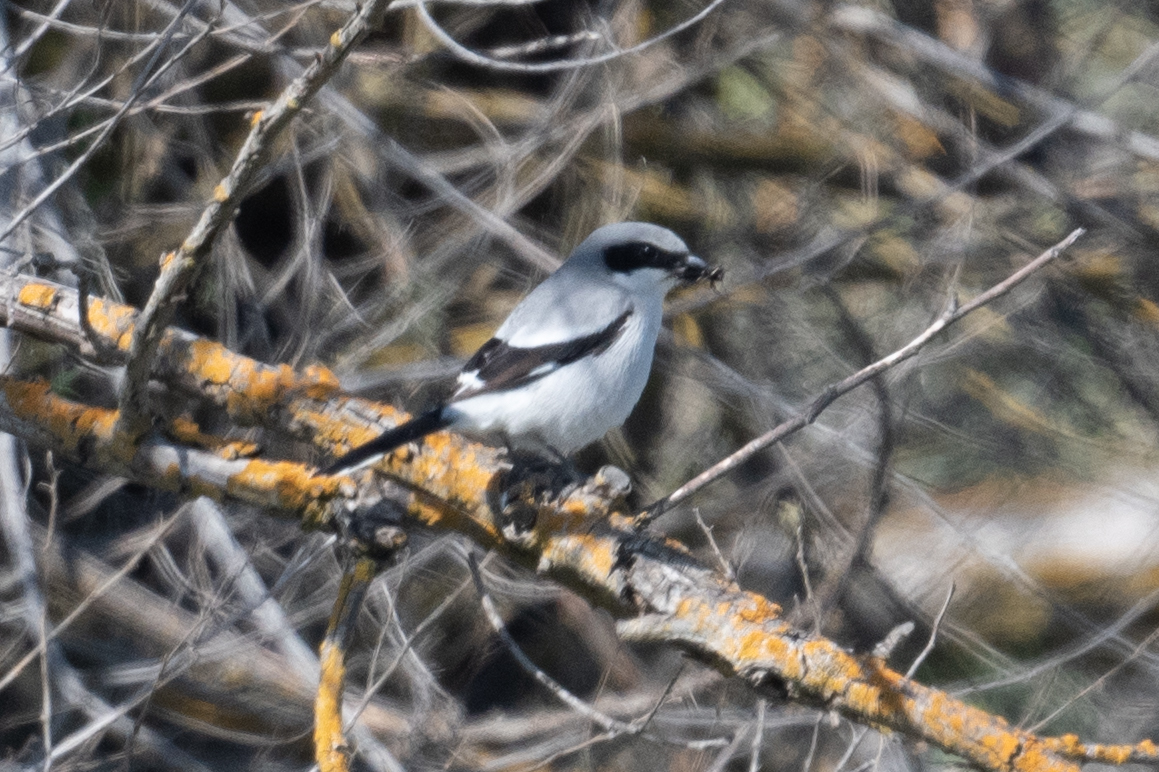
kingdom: Animalia
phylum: Chordata
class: Aves
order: Passeriformes
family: Laniidae
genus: Lanius
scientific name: Lanius ludovicianus
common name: Loggerhead shrike
